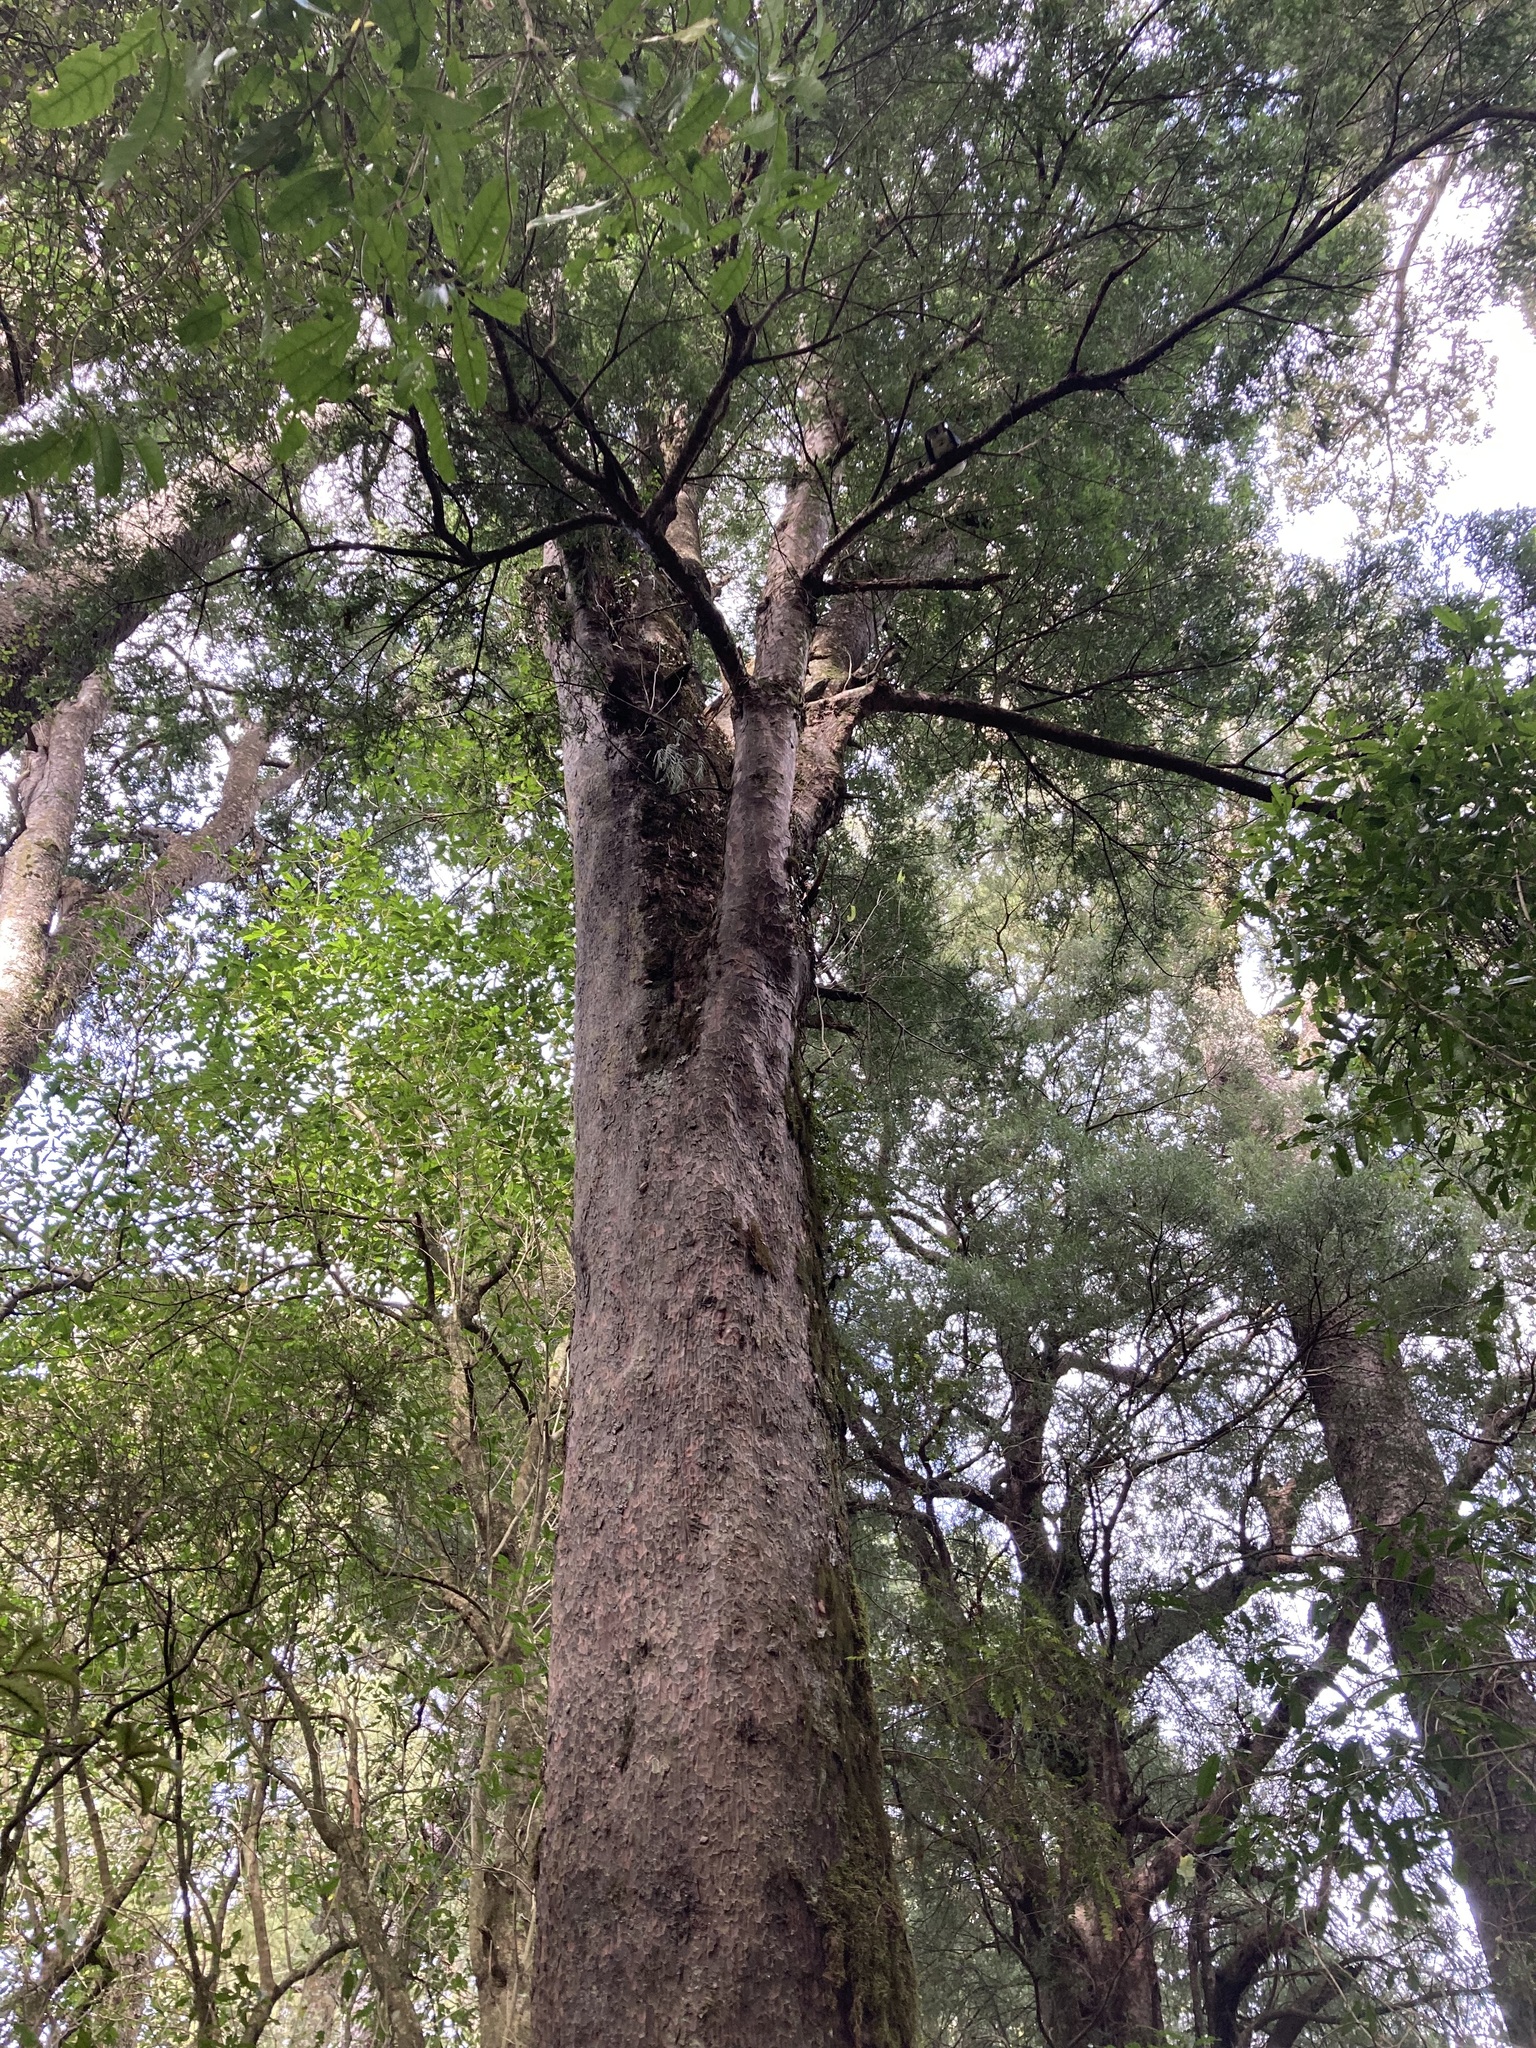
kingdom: Plantae
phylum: Tracheophyta
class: Pinopsida
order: Pinales
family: Podocarpaceae
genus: Dacrycarpus
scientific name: Dacrycarpus dacrydioides
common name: White pine
